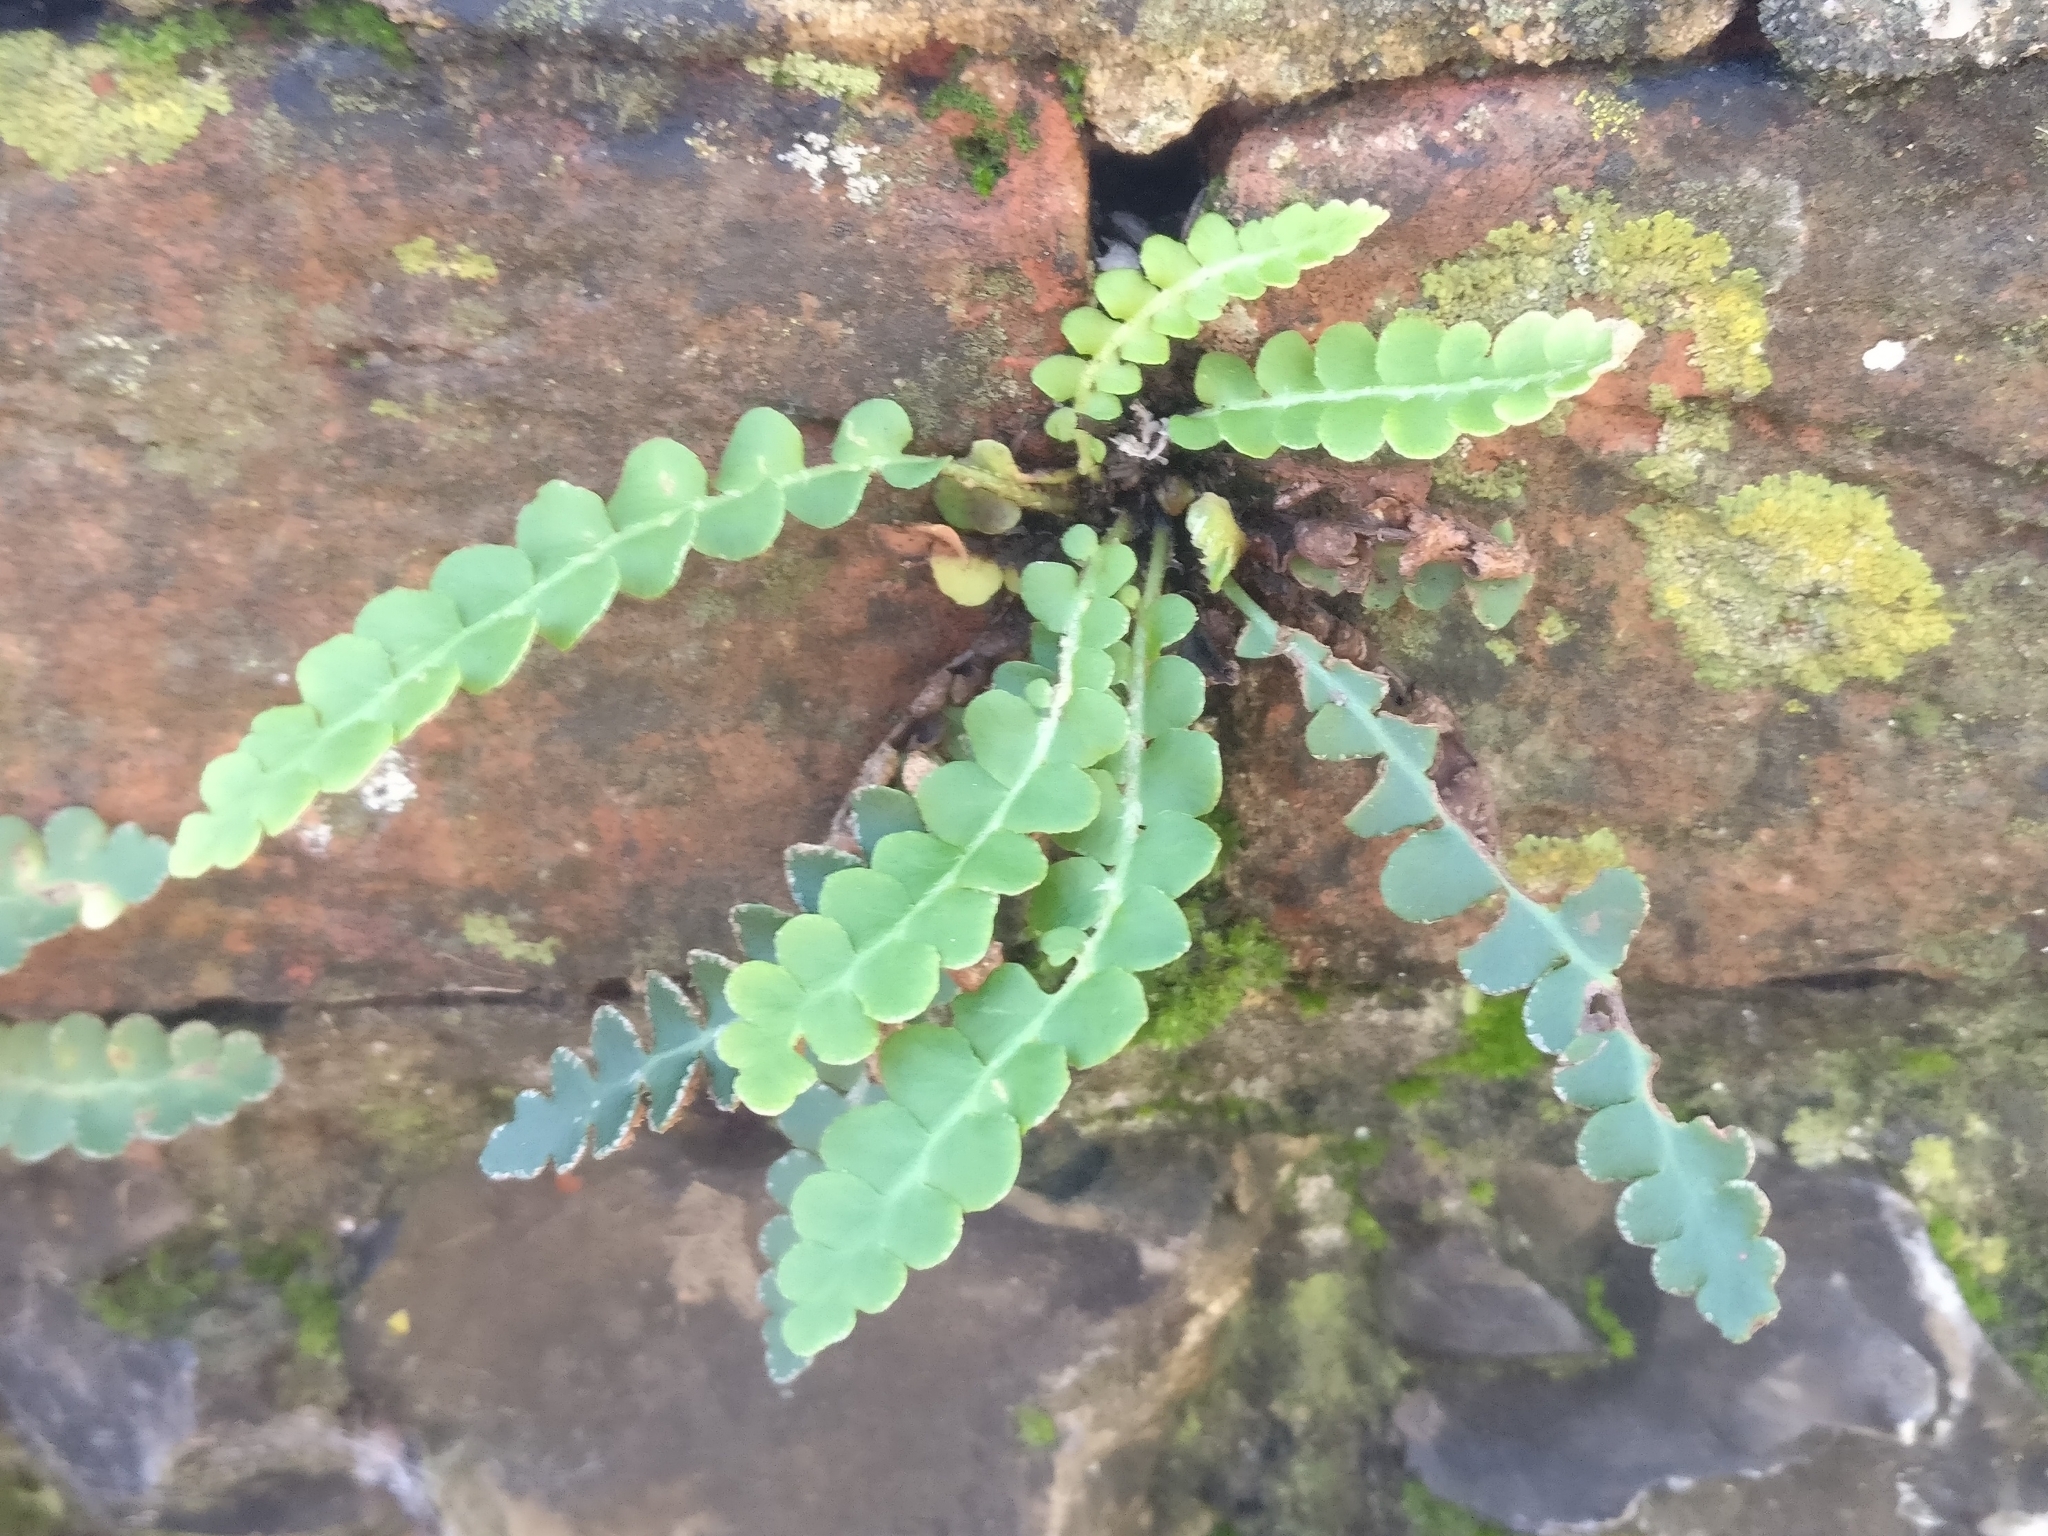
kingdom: Plantae
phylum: Tracheophyta
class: Polypodiopsida
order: Polypodiales
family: Aspleniaceae
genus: Asplenium
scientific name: Asplenium ceterach
